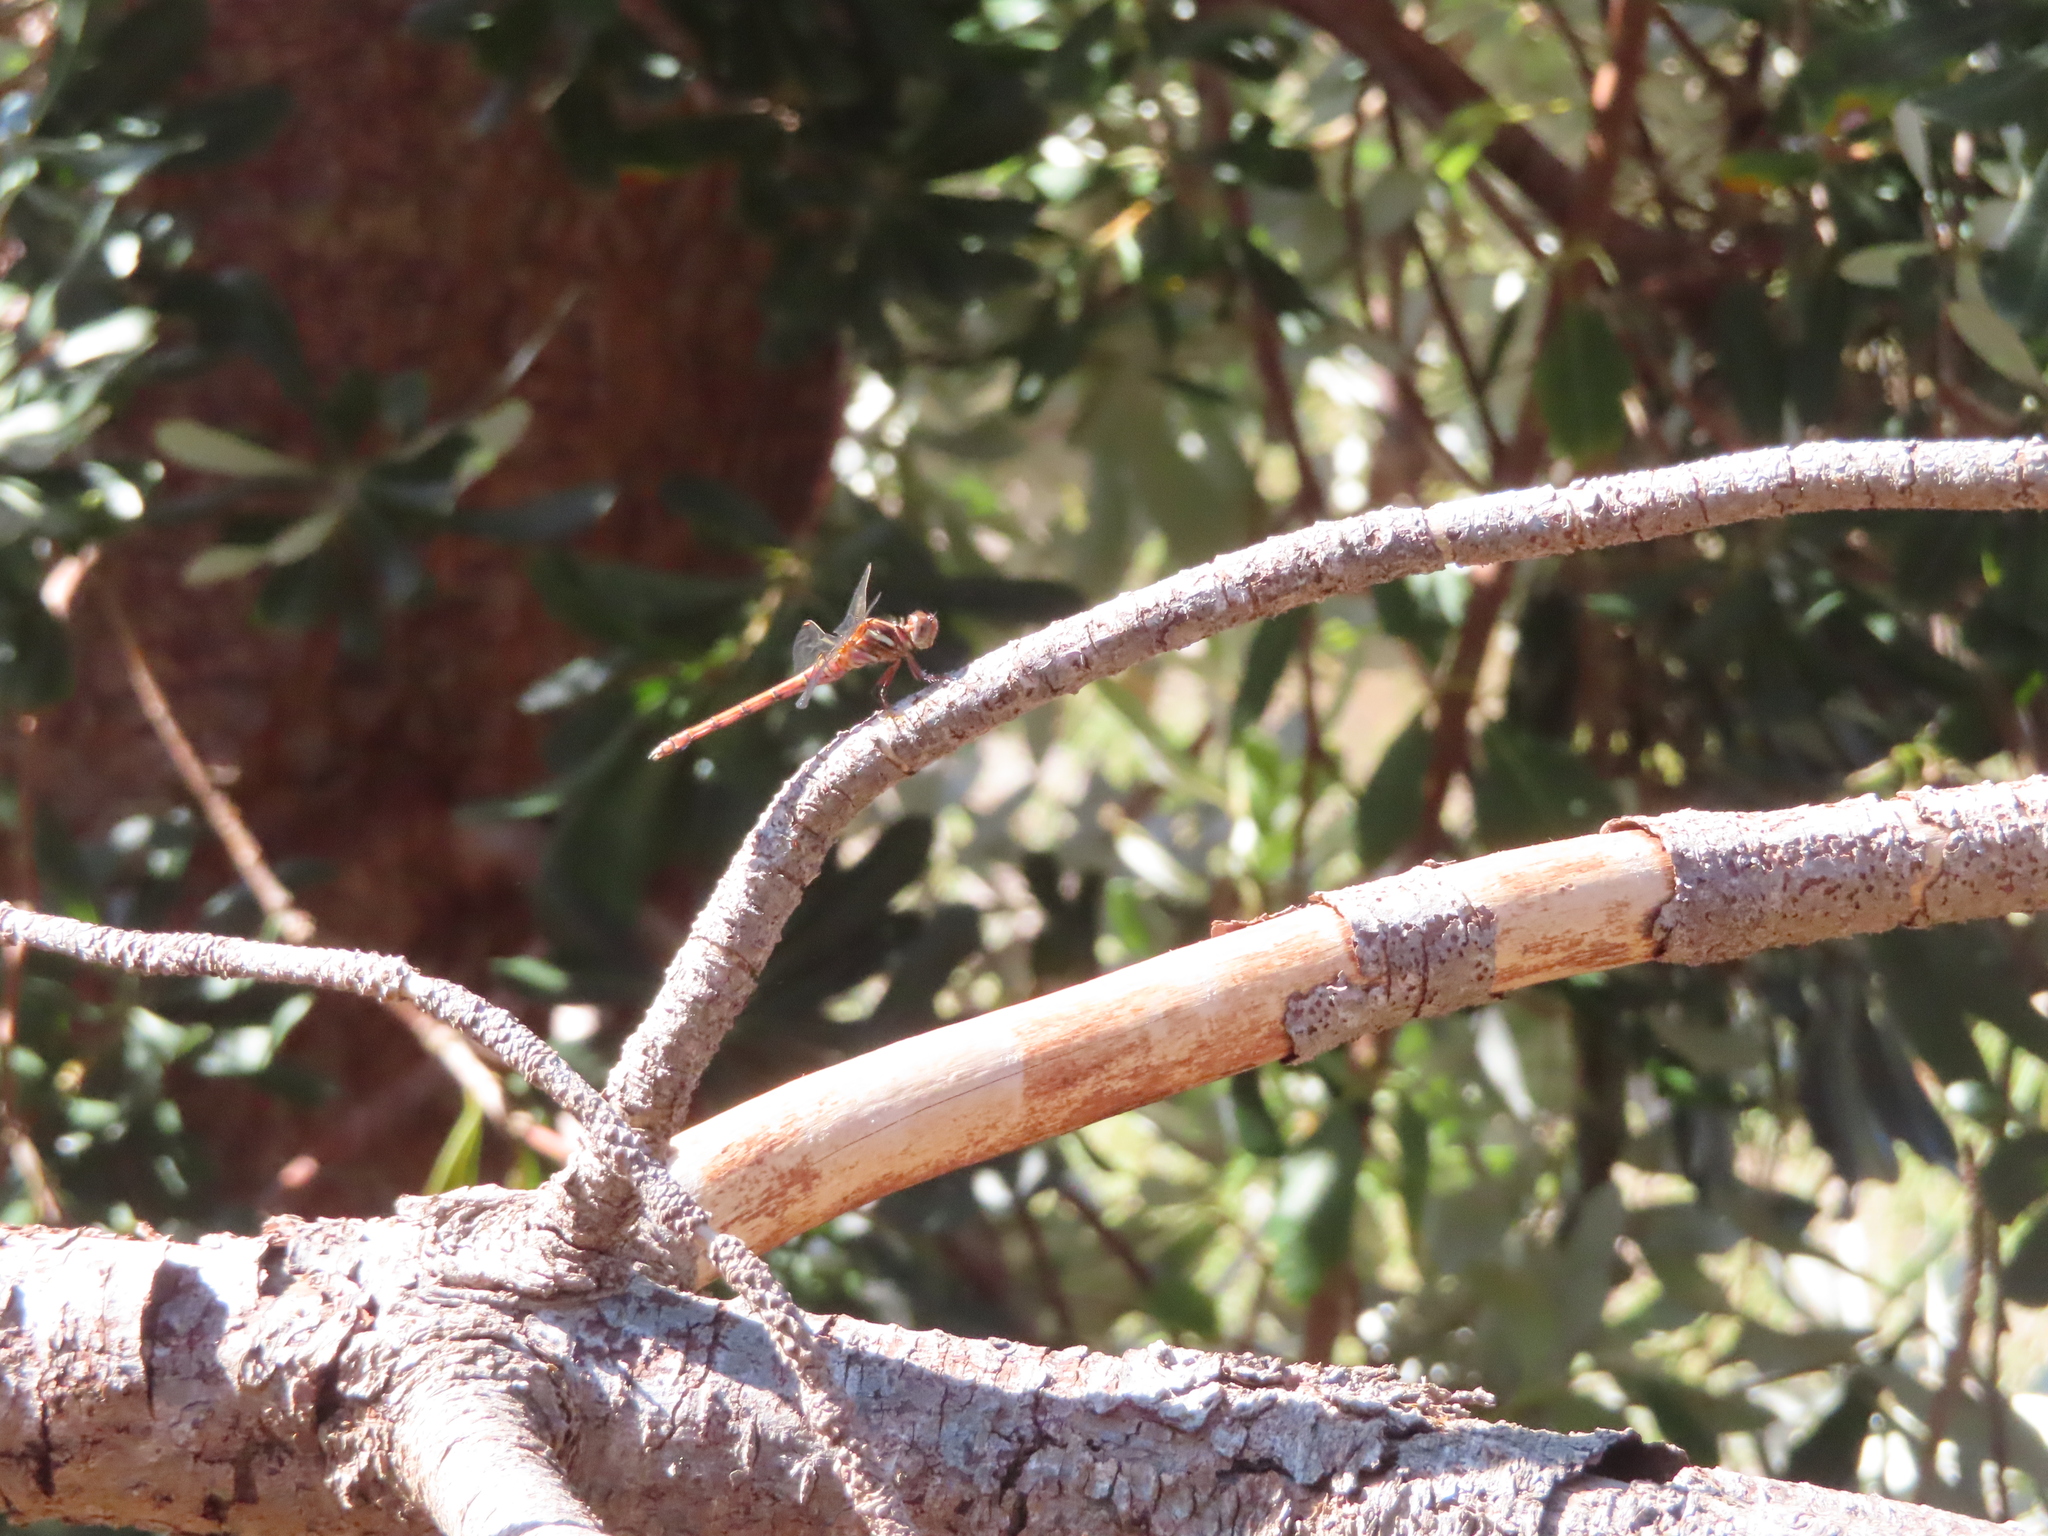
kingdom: Animalia
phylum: Arthropoda
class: Insecta
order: Odonata
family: Libellulidae
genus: Orthetrum
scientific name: Orthetrum julia
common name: Julia skimmer
